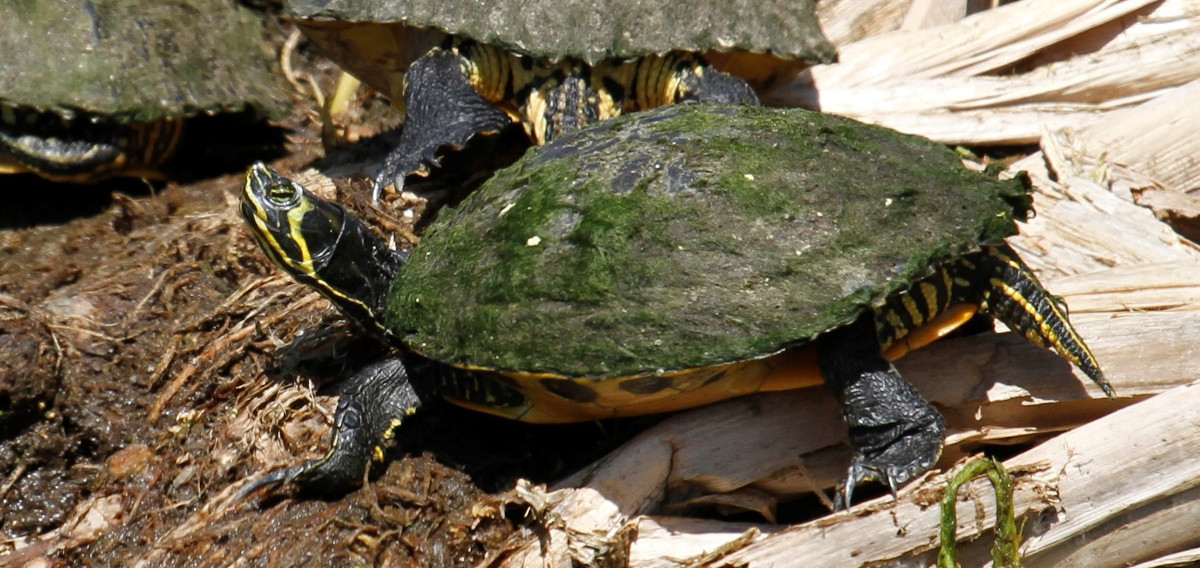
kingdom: Animalia
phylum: Chordata
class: Testudines
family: Emydidae
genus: Trachemys
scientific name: Trachemys scripta
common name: Slider
